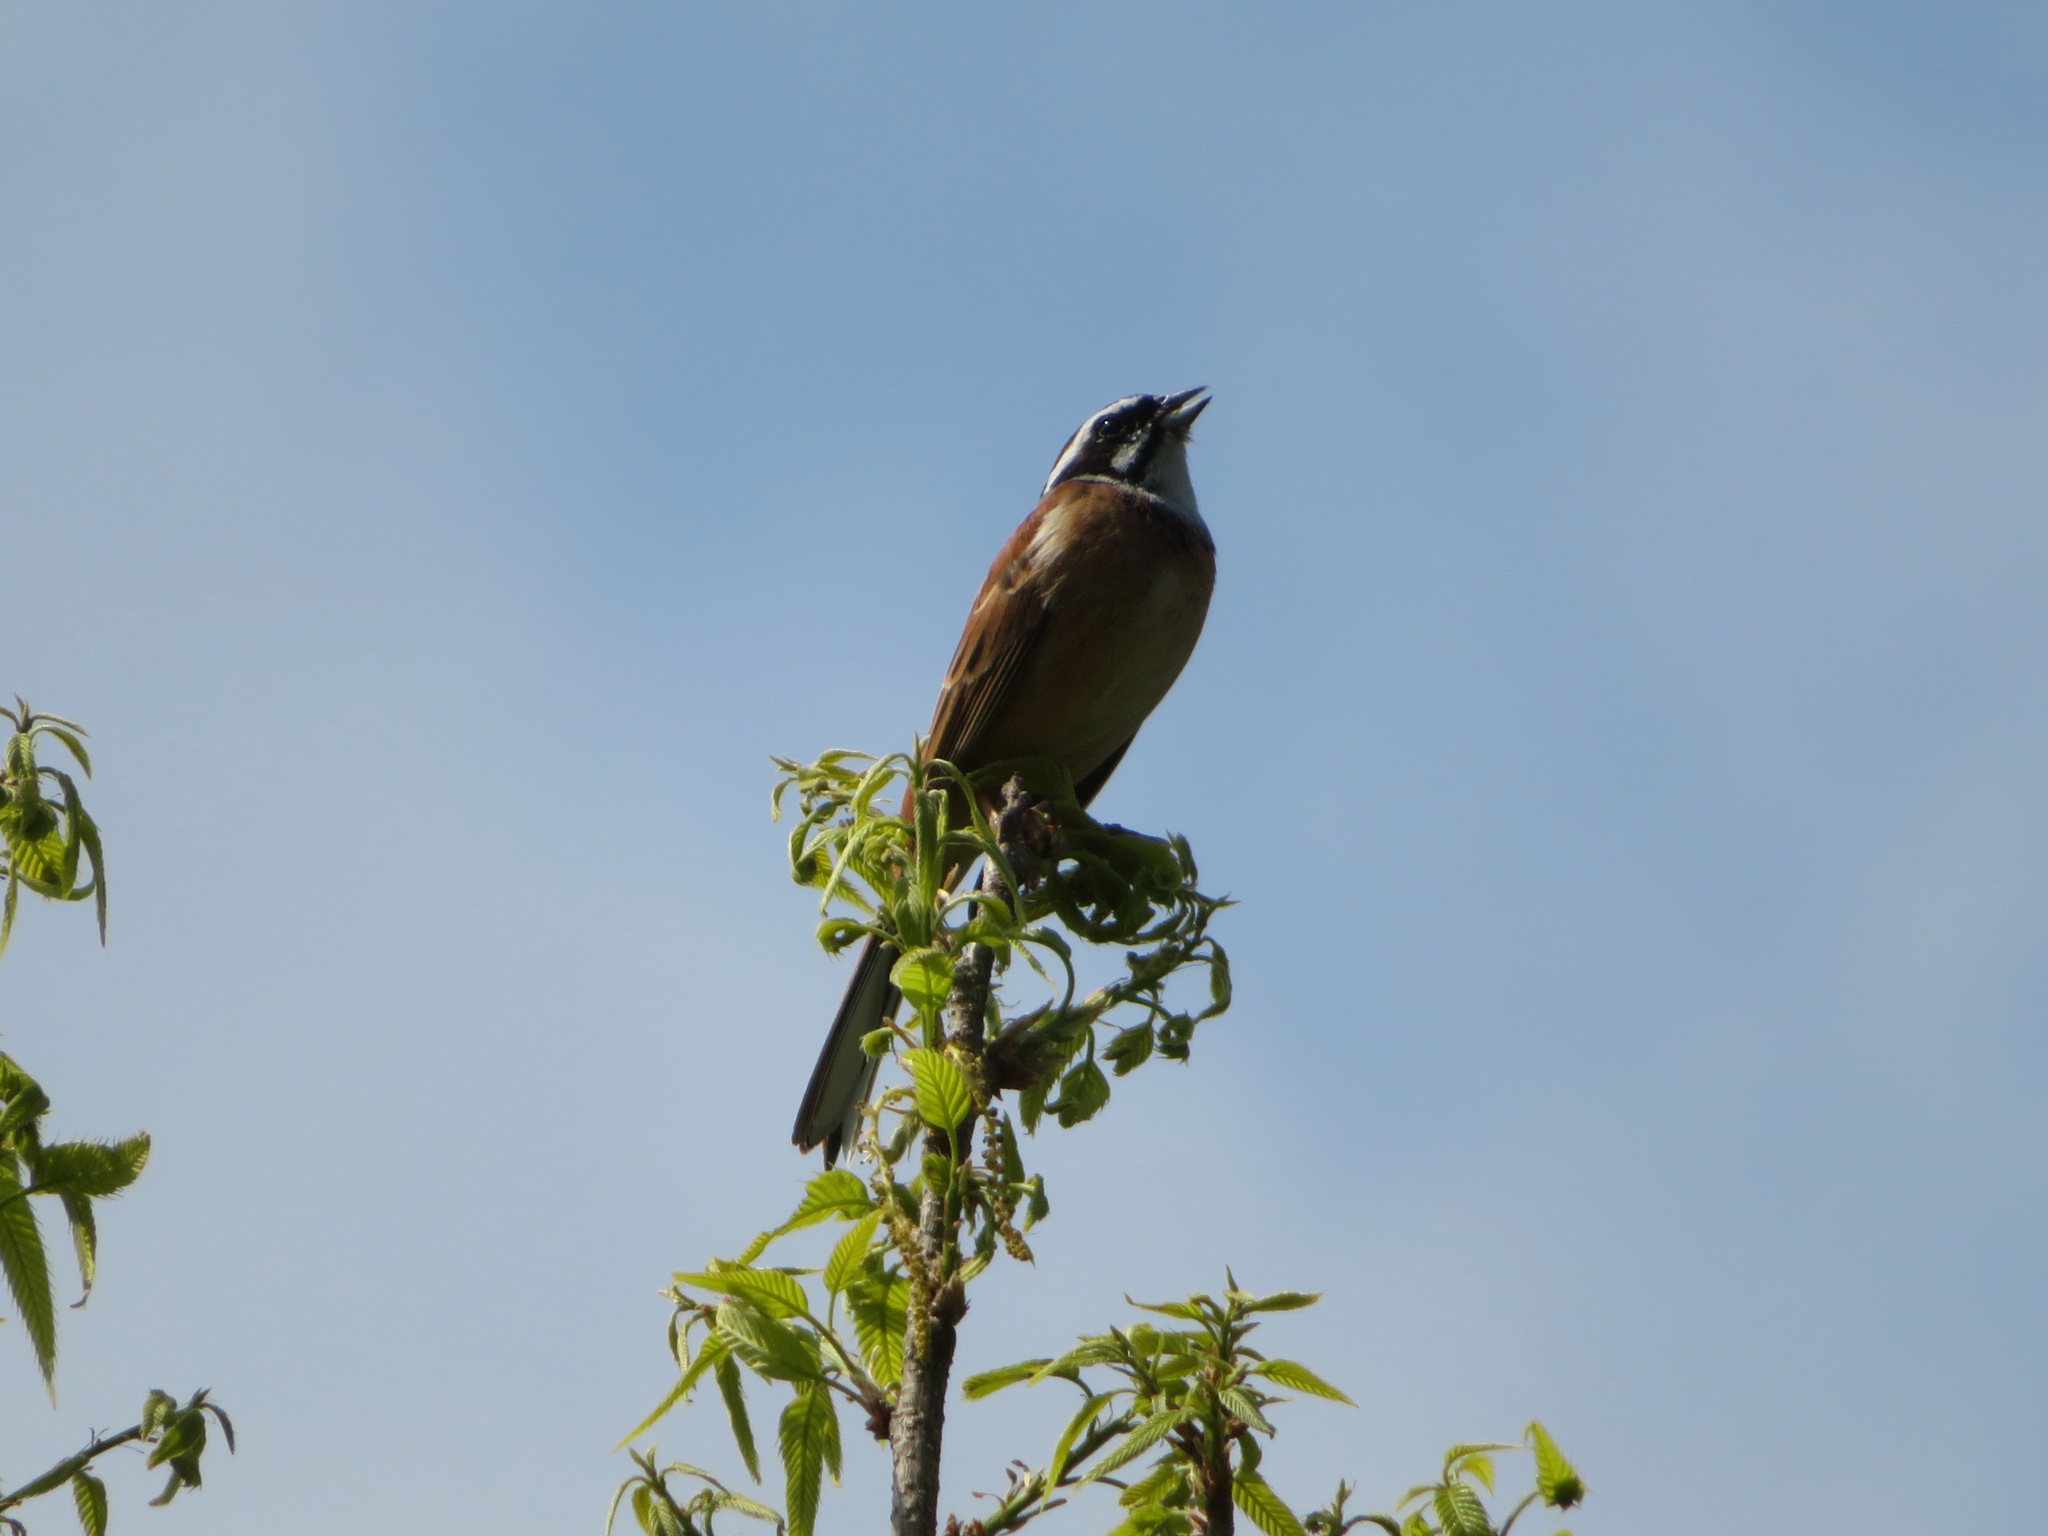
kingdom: Animalia
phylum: Chordata
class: Aves
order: Passeriformes
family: Emberizidae
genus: Emberiza
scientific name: Emberiza cioides
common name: Meadow bunting
